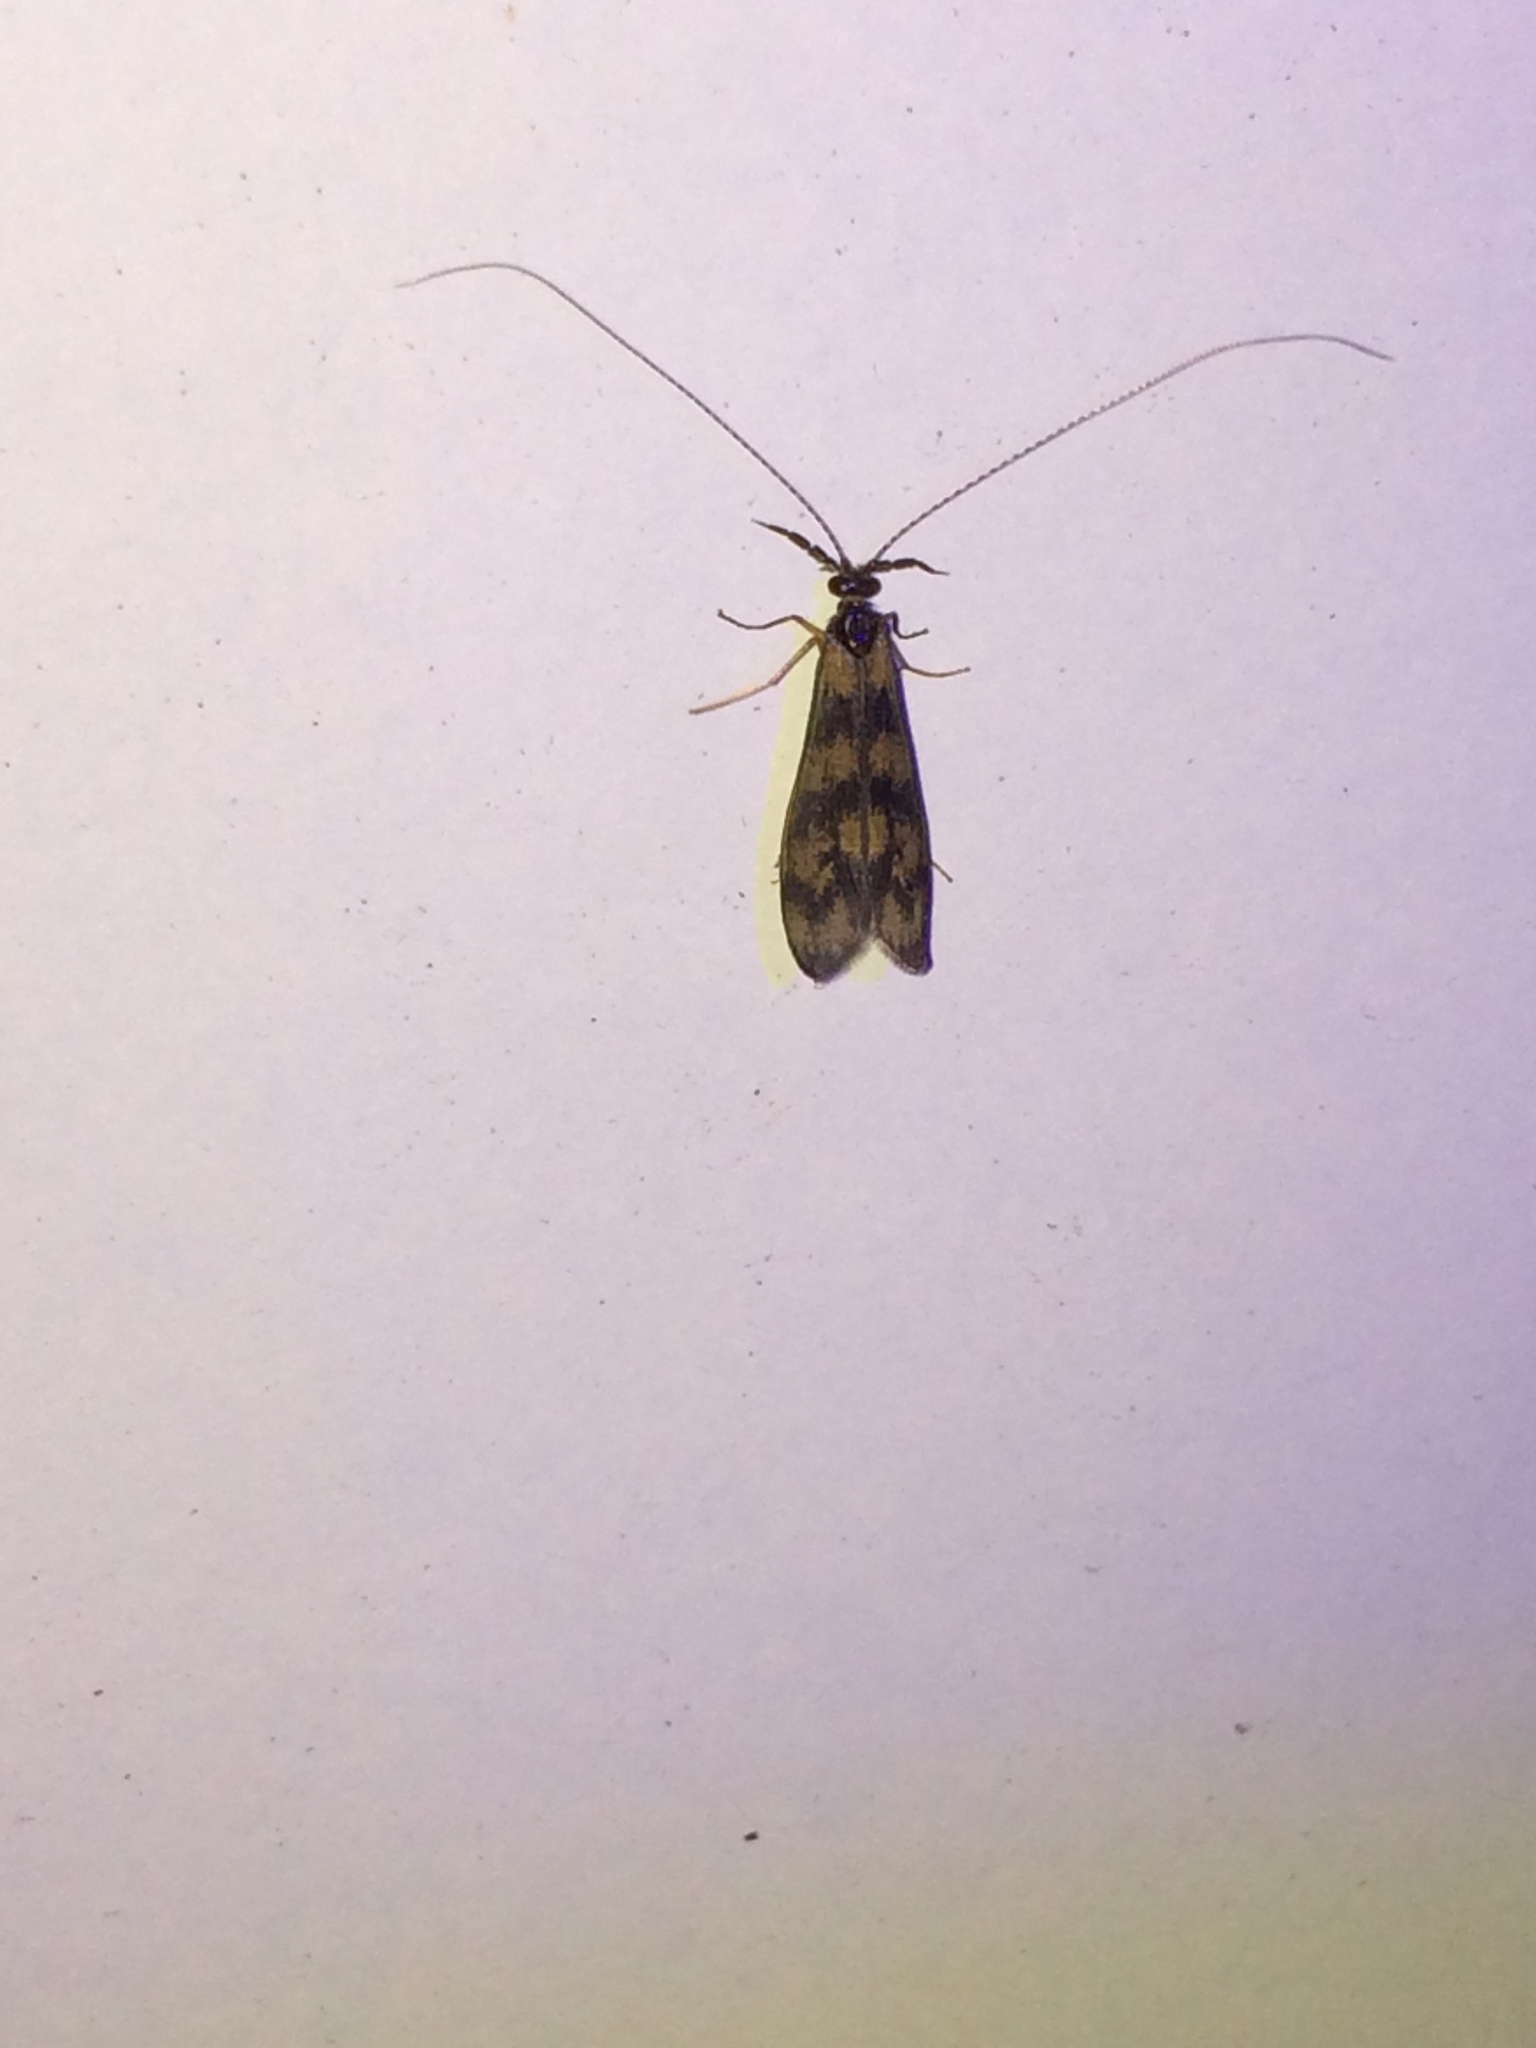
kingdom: Animalia
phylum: Arthropoda
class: Insecta
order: Trichoptera
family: Leptoceridae
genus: Mystacides
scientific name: Mystacides longicornis
